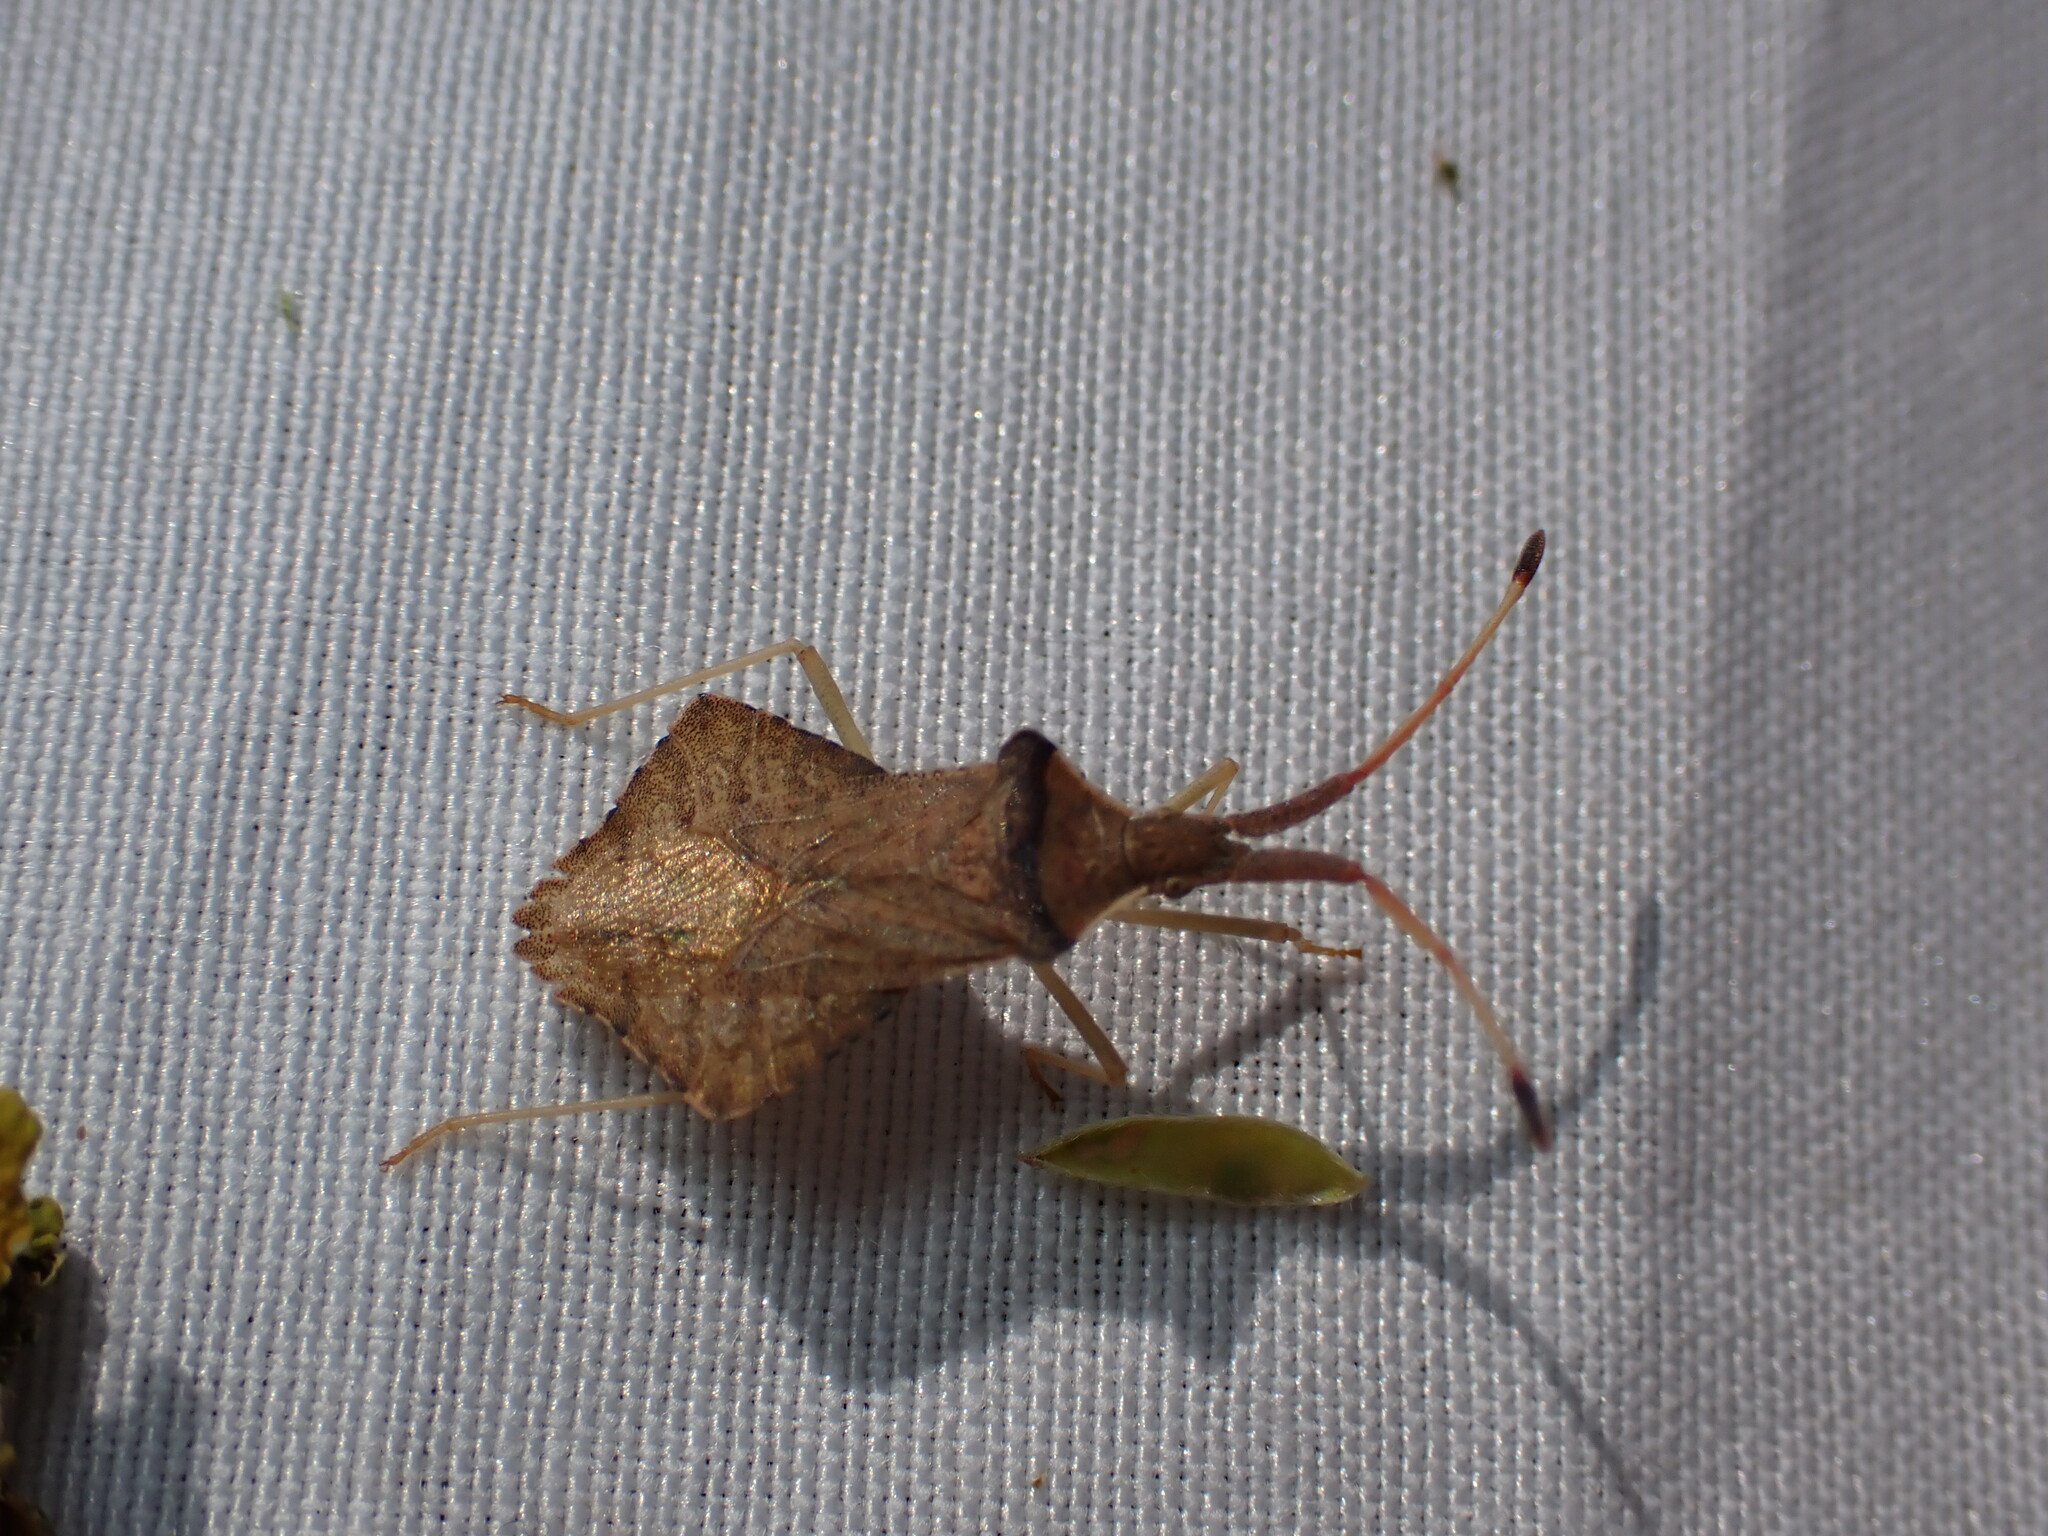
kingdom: Animalia
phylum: Arthropoda
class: Insecta
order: Hemiptera
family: Coreidae
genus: Syromastus
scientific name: Syromastus rhombeus
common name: Rhombic leatherbug
